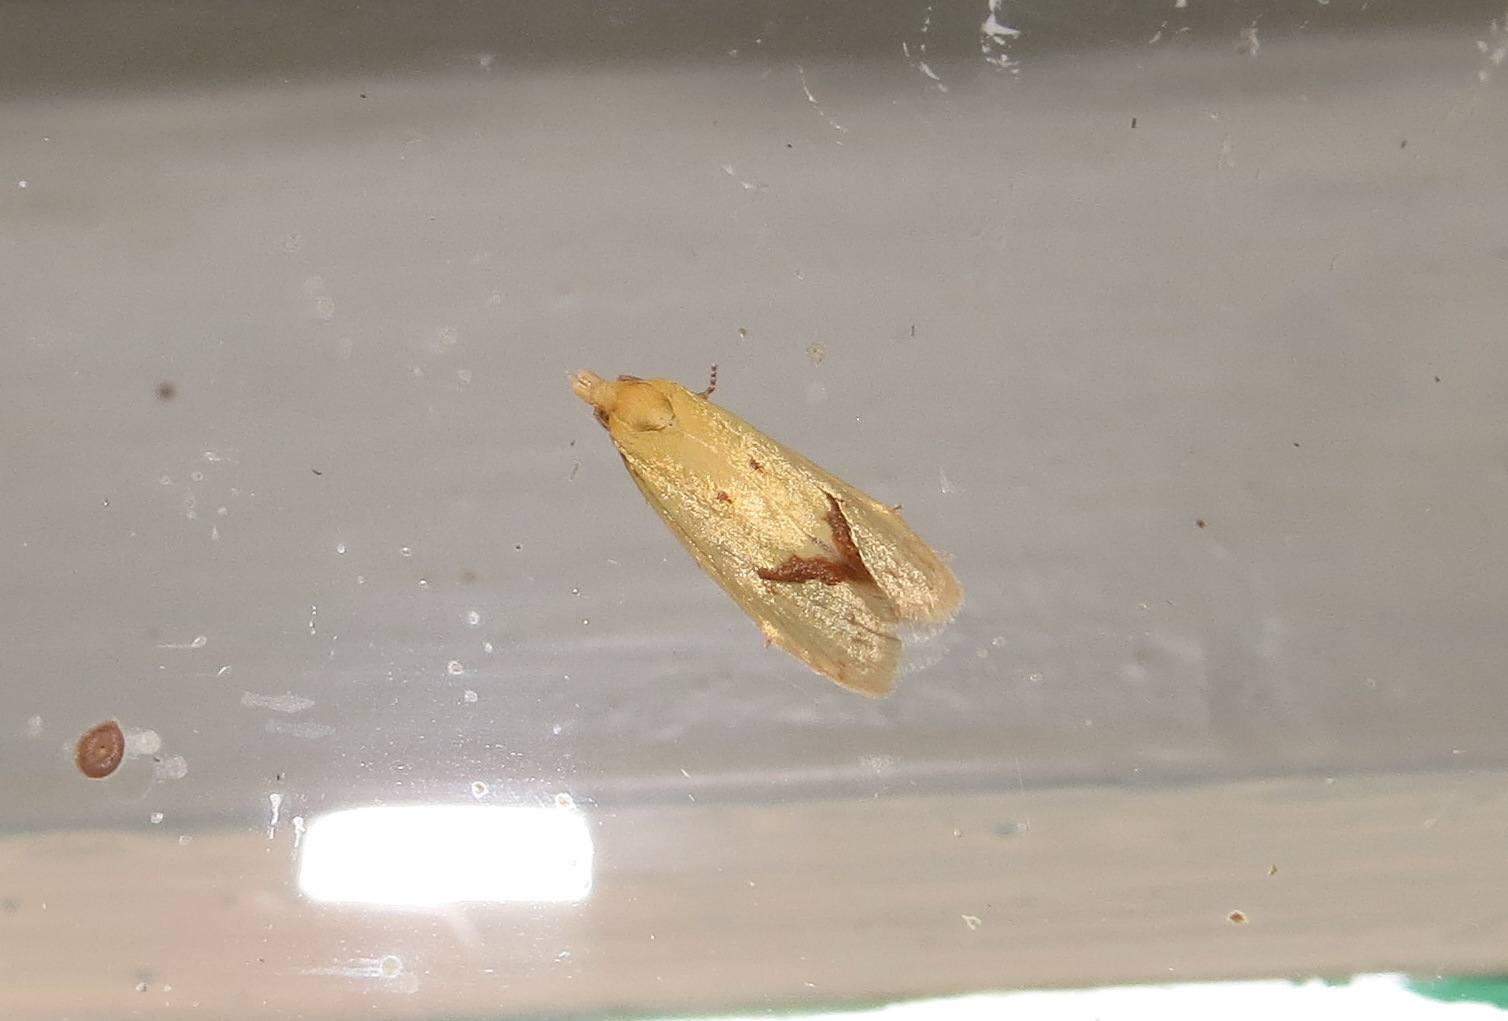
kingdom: Animalia
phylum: Arthropoda
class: Insecta
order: Lepidoptera
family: Tortricidae
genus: Agapeta
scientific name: Agapeta hamana
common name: Common yellow conch
